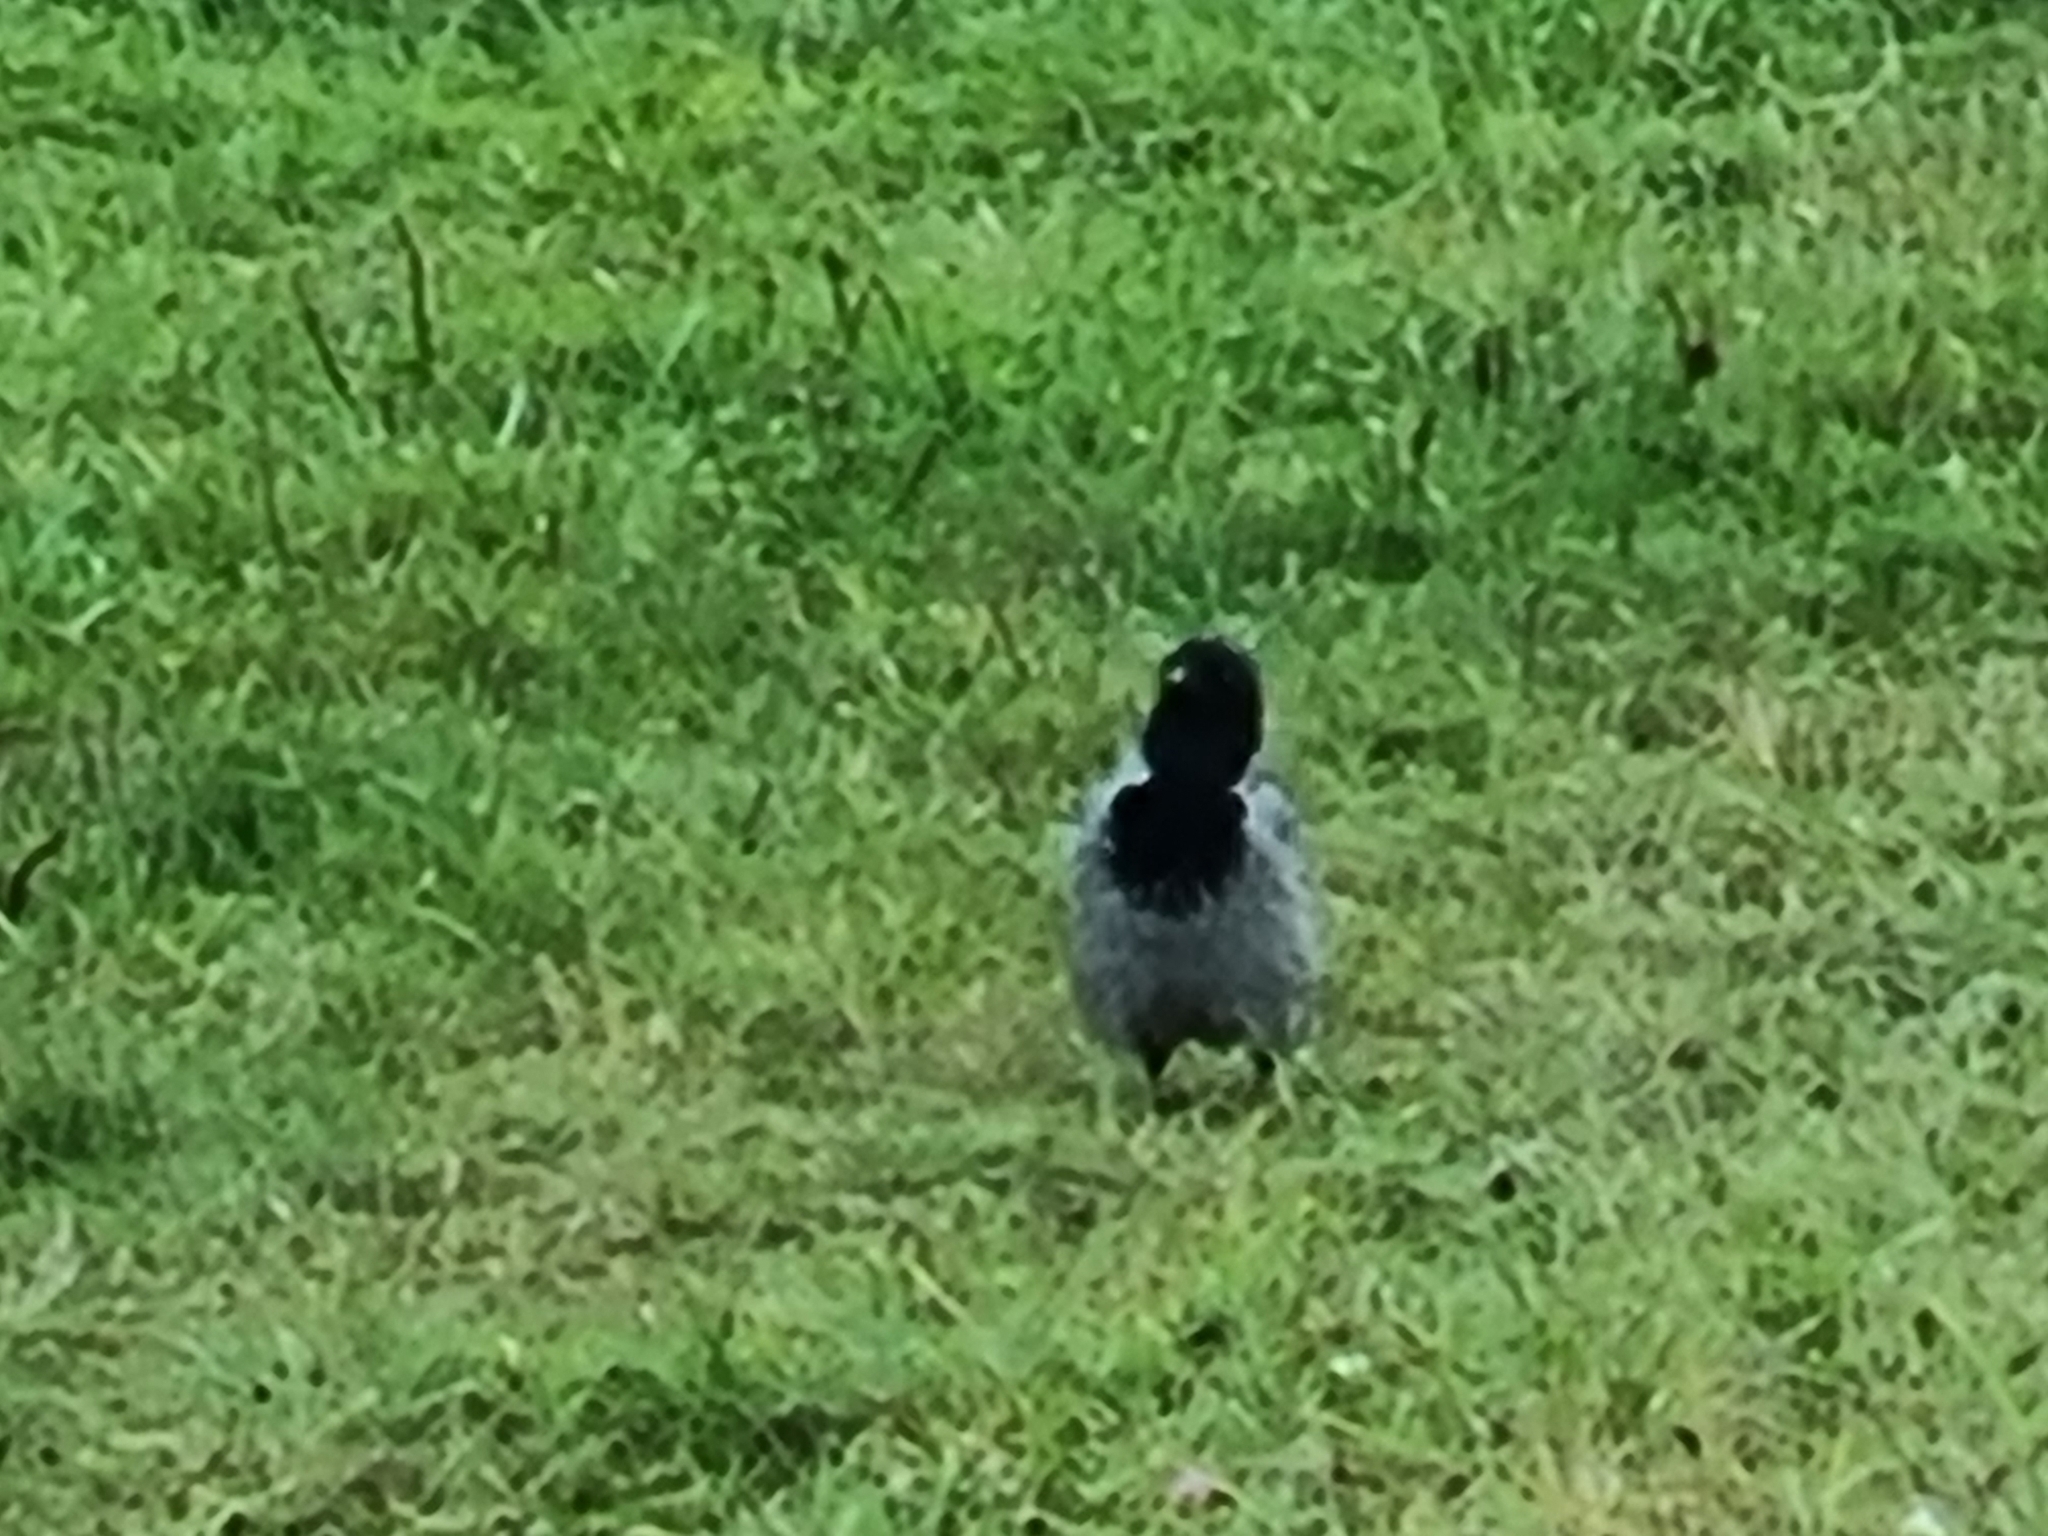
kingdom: Animalia
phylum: Chordata
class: Aves
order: Passeriformes
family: Corvidae
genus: Corvus
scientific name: Corvus cornix
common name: Hooded crow
